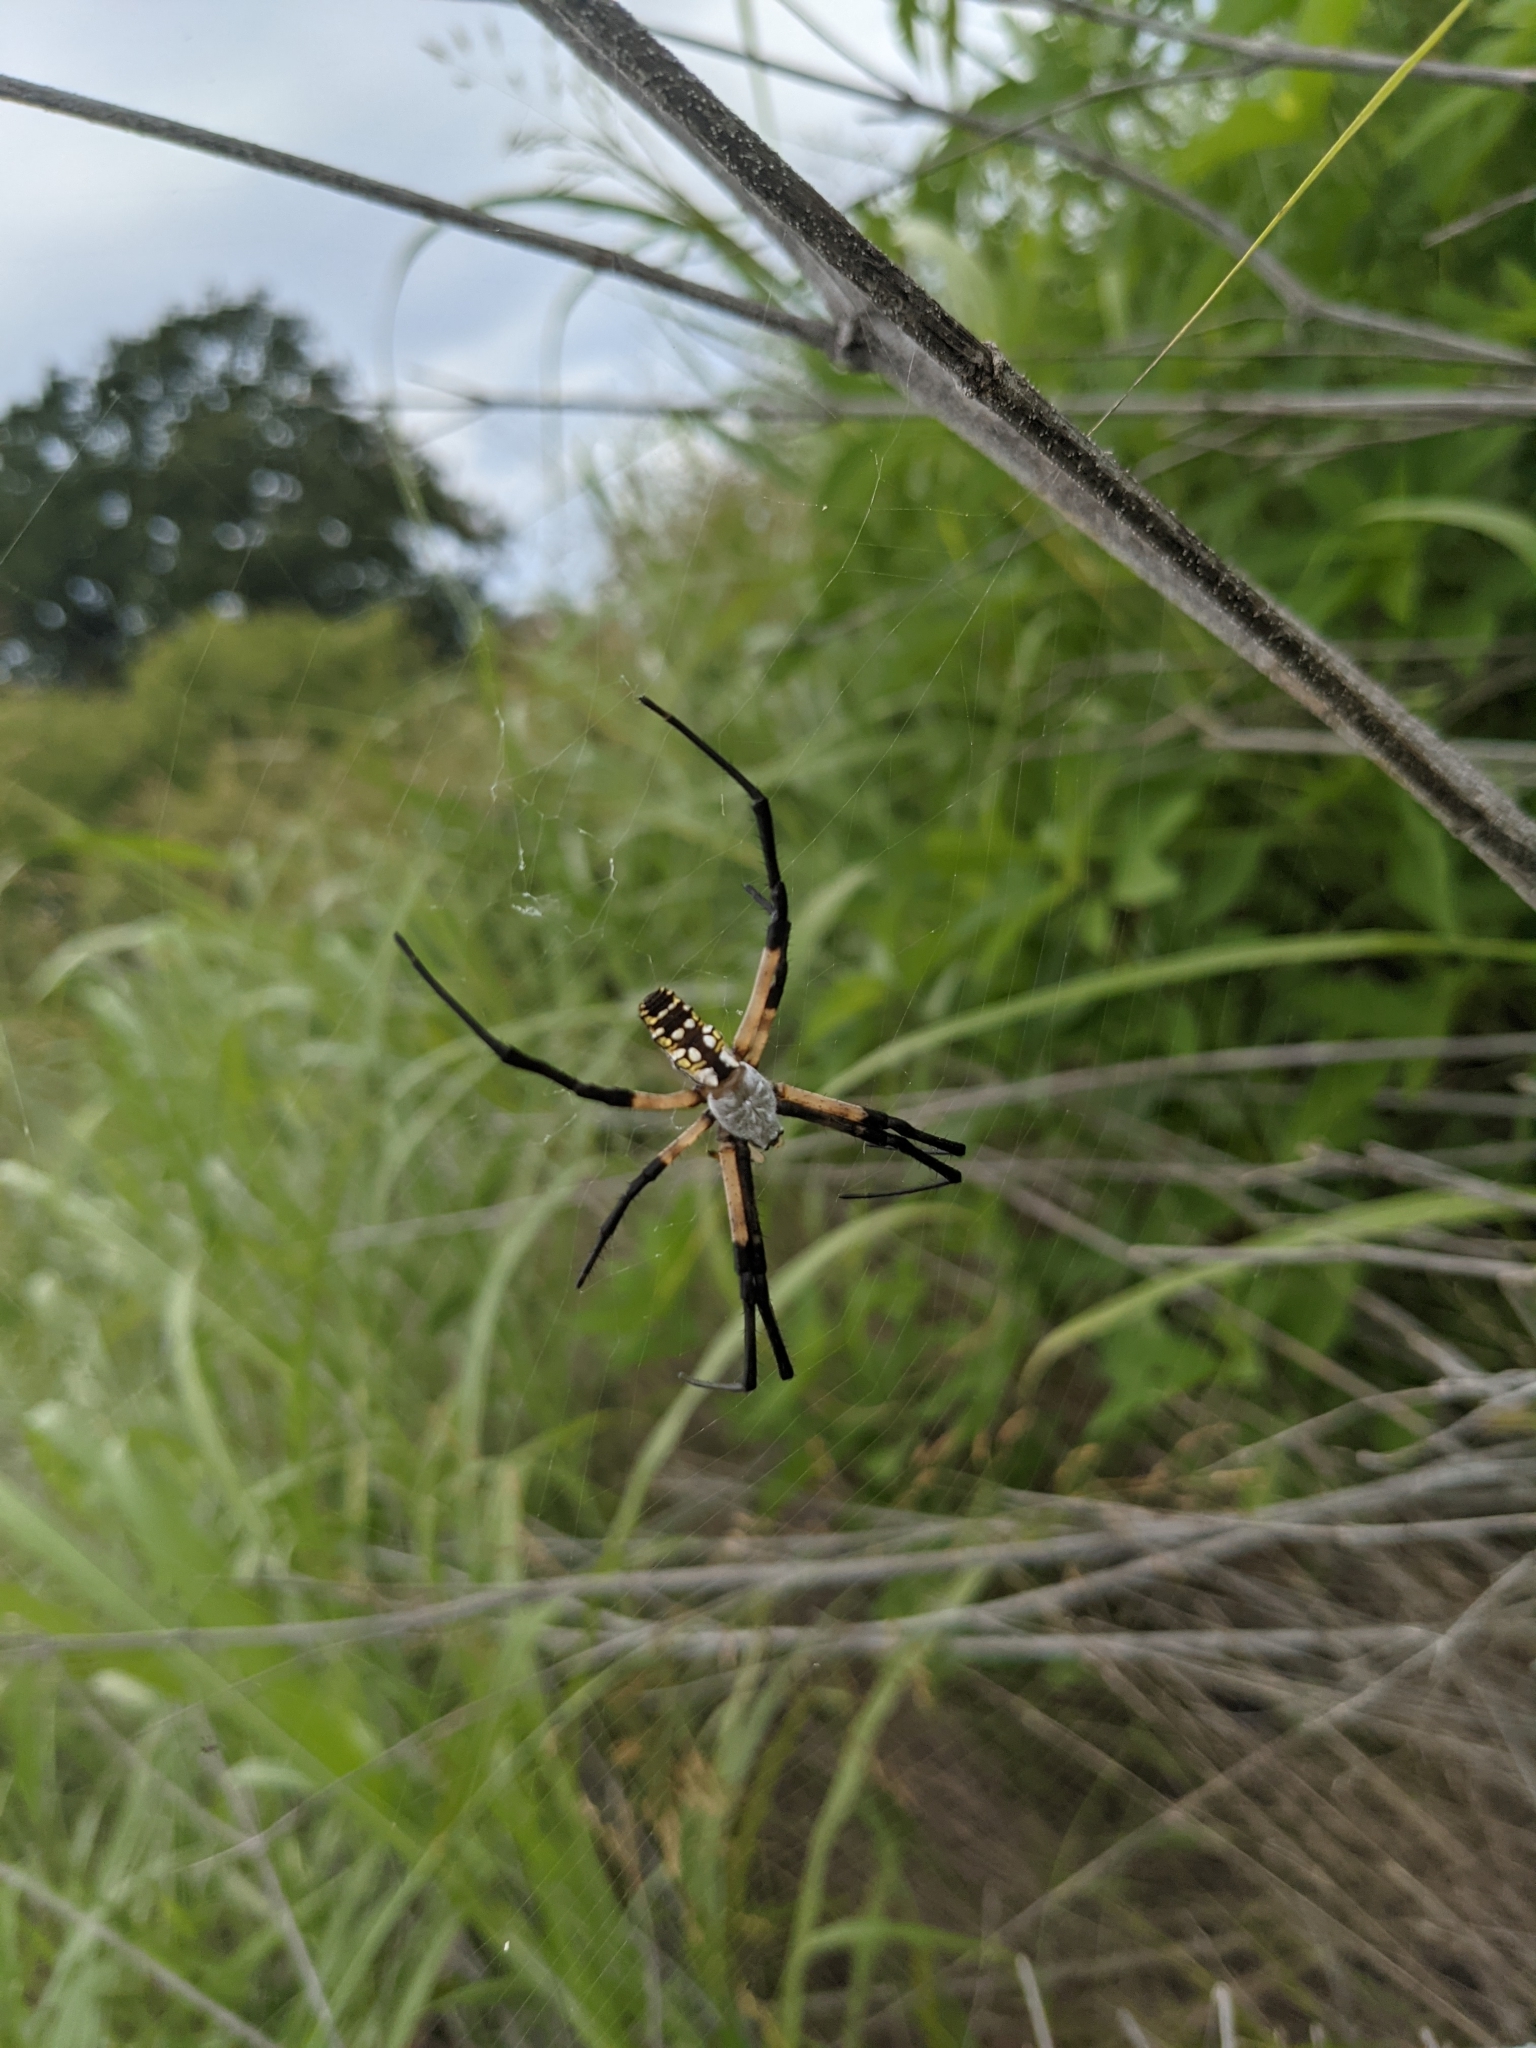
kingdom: Animalia
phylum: Arthropoda
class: Arachnida
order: Araneae
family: Araneidae
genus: Argiope
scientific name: Argiope aurantia
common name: Orb weavers
